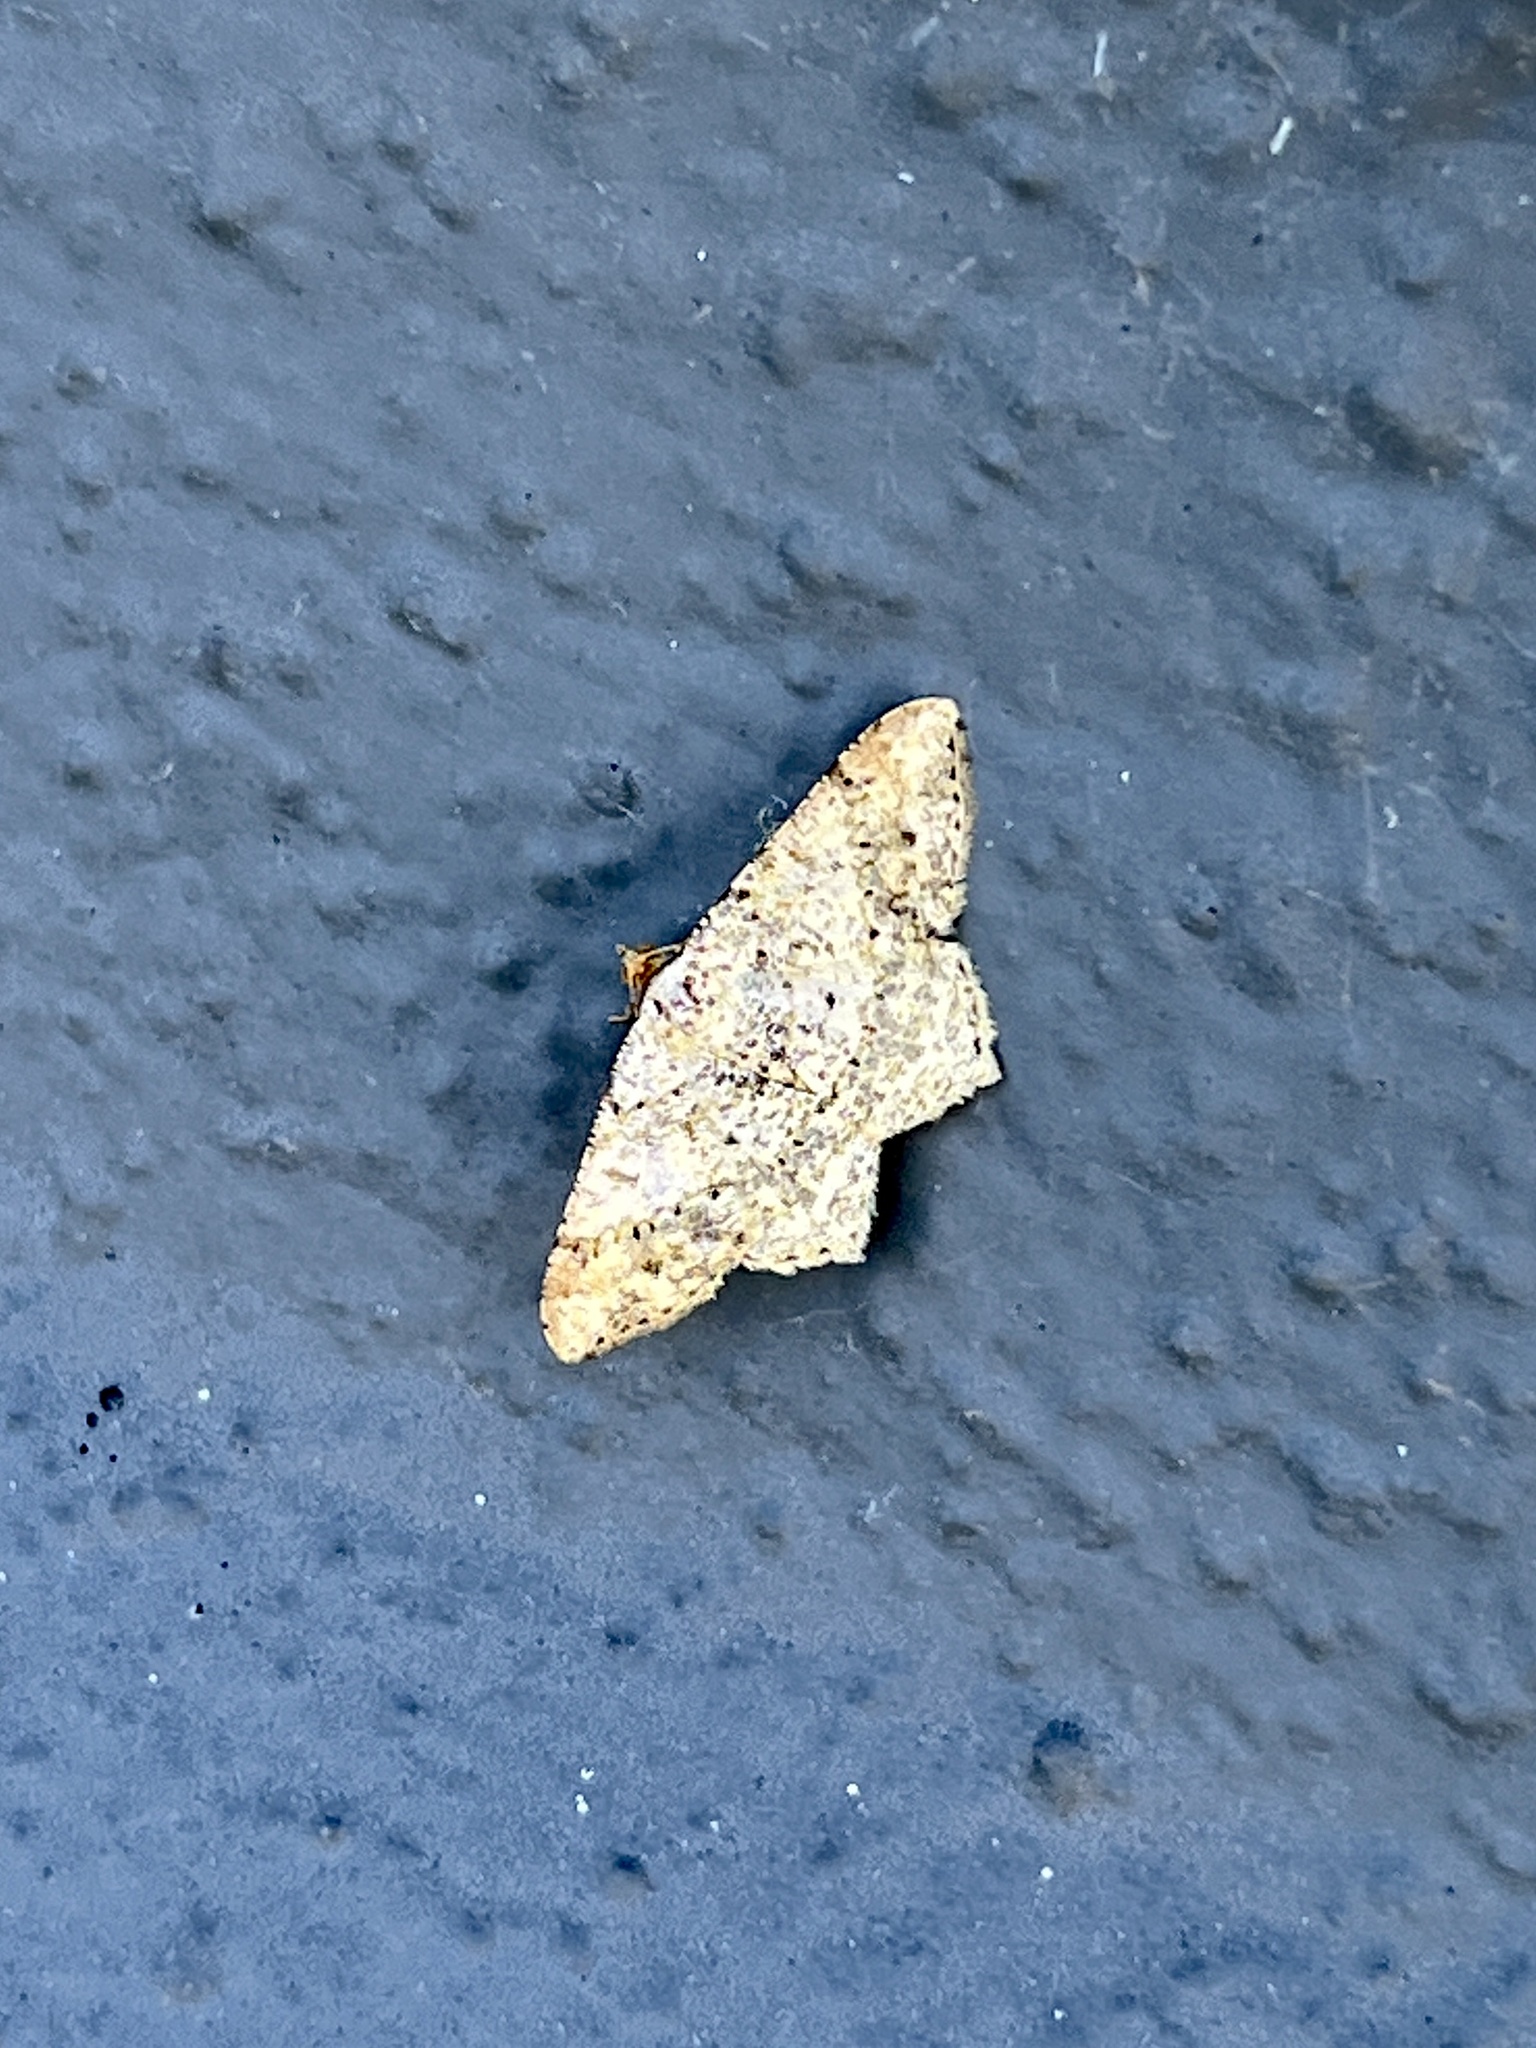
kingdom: Animalia
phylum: Arthropoda
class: Insecta
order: Lepidoptera
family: Geometridae
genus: Macaria
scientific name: Macaria abydata
